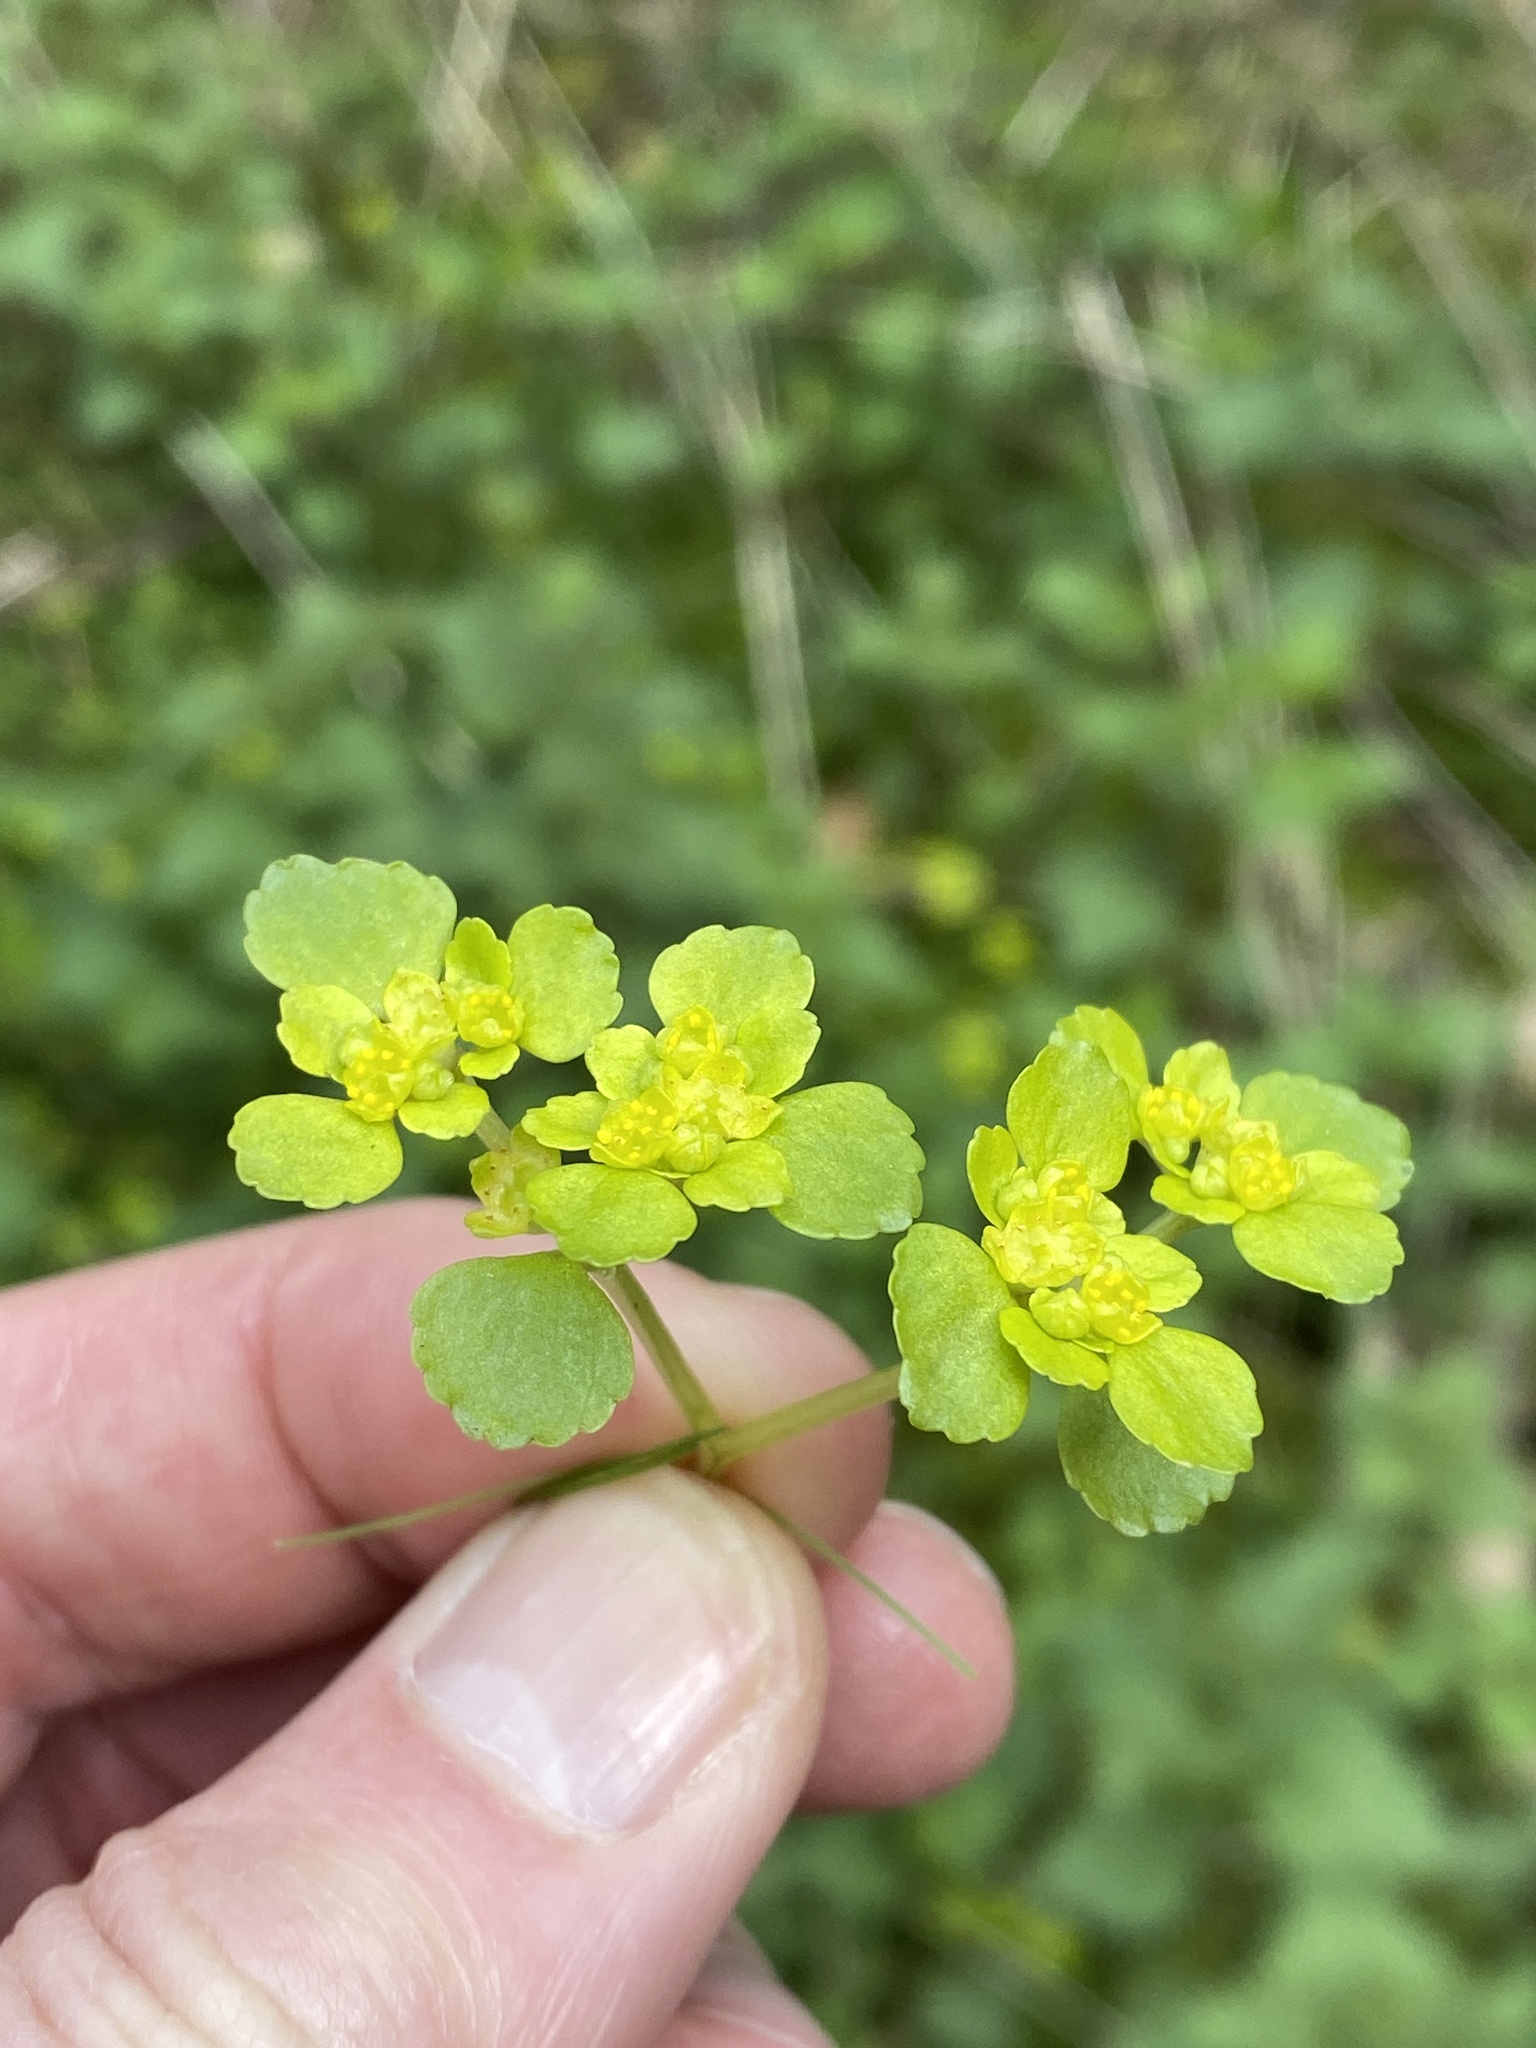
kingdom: Plantae
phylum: Tracheophyta
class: Magnoliopsida
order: Saxifragales
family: Saxifragaceae
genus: Chrysosplenium
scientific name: Chrysosplenium oppositifolium
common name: Opposite-leaved golden-saxifrage
